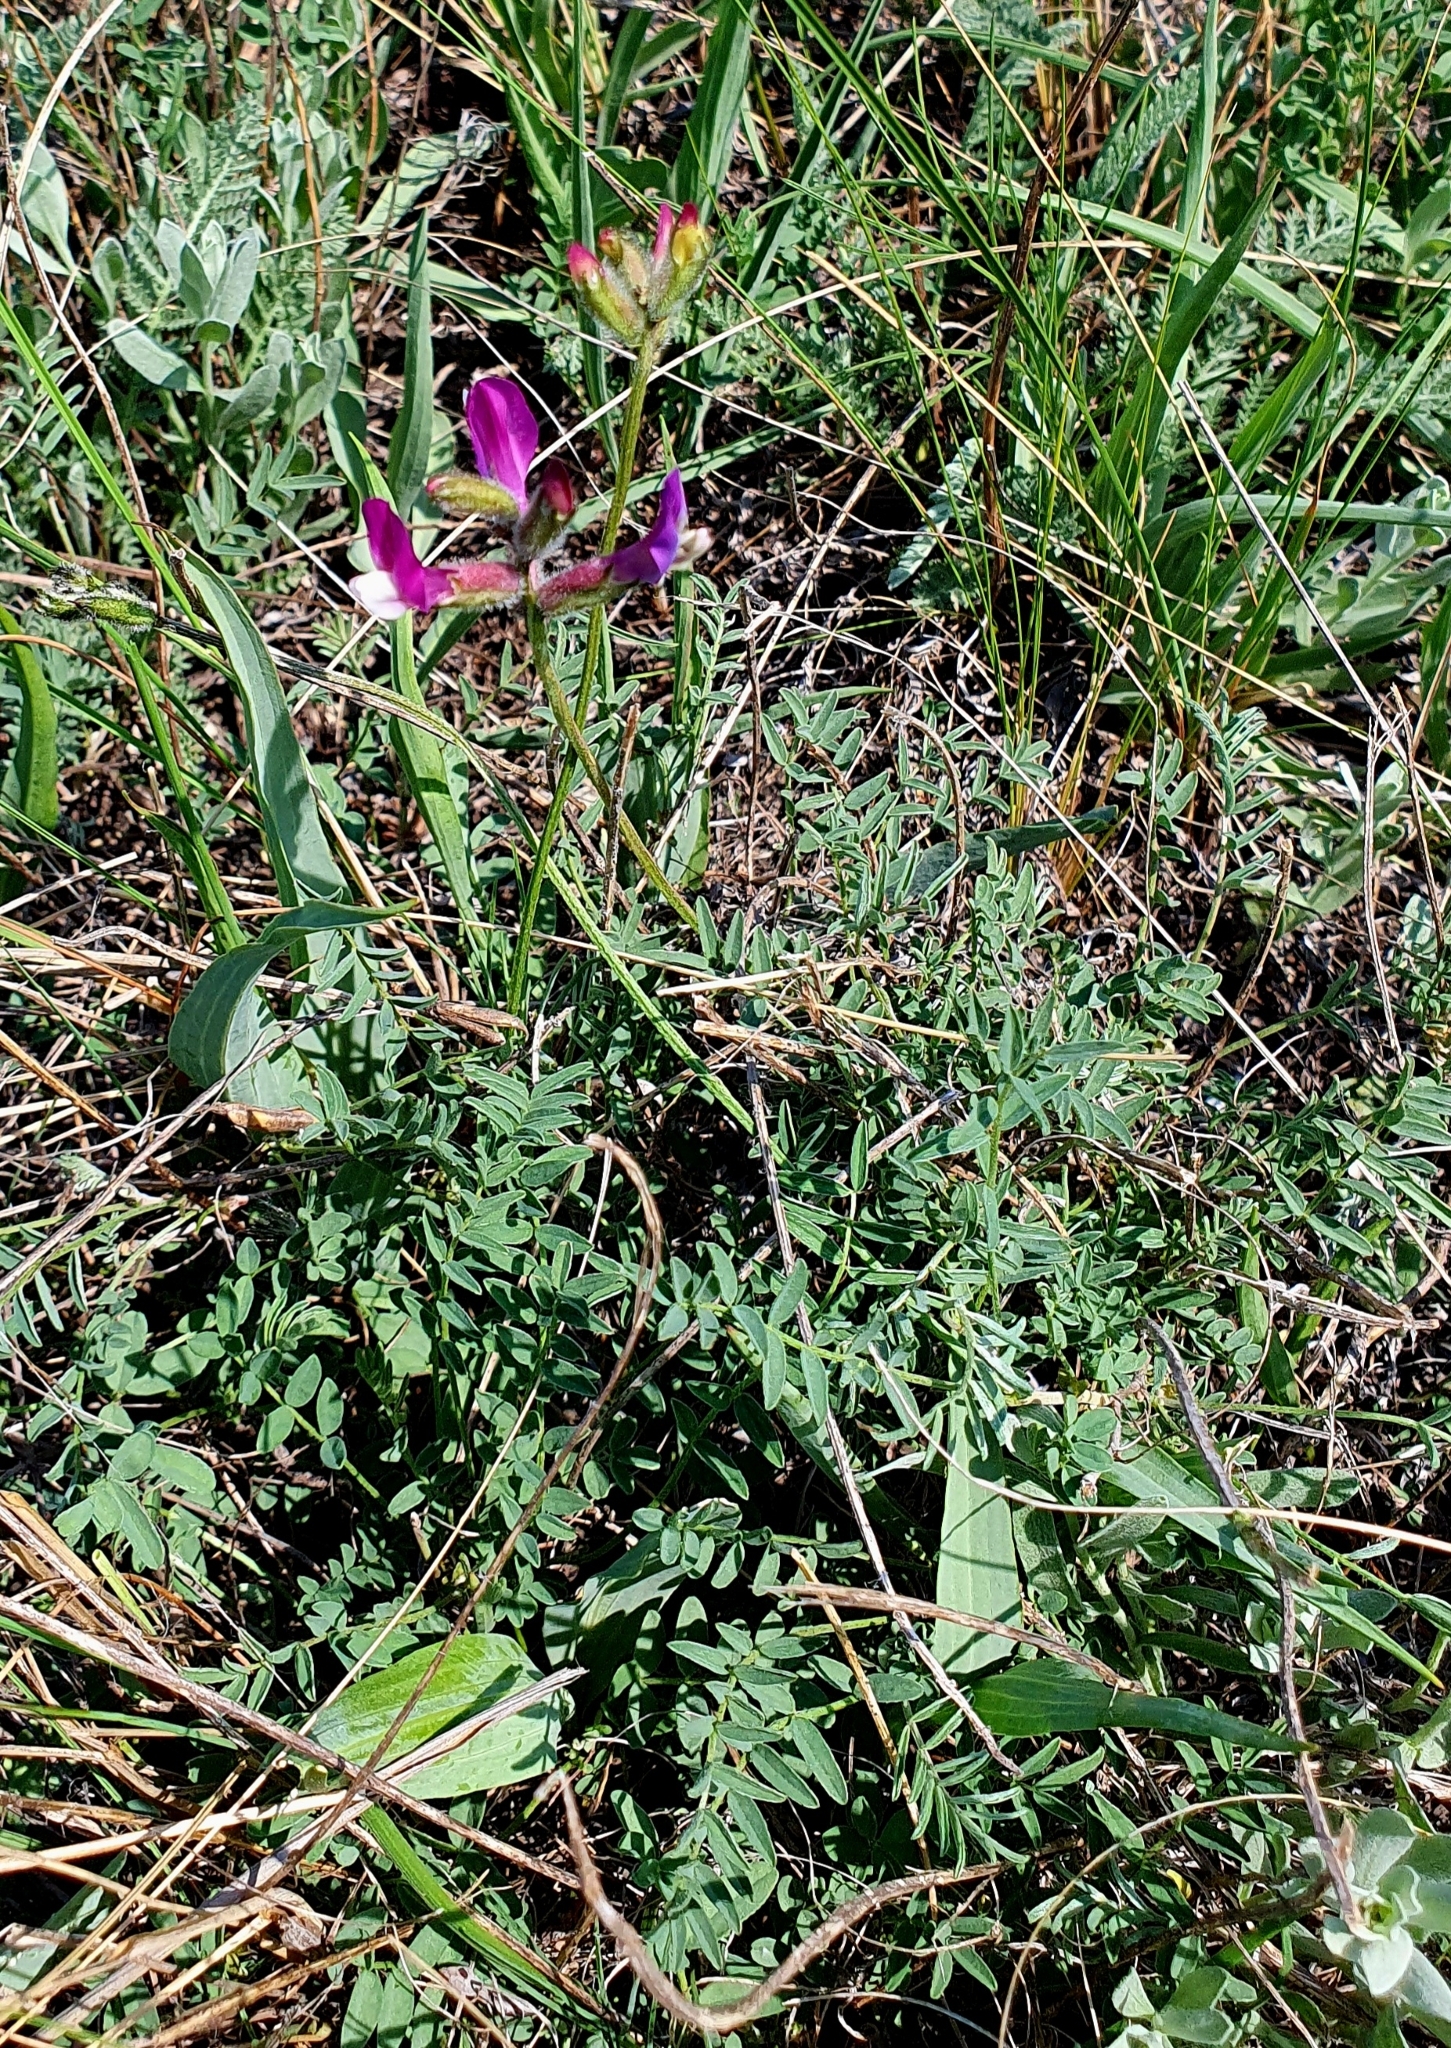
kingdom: Plantae
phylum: Tracheophyta
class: Magnoliopsida
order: Fabales
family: Fabaceae
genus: Astragalus
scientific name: Astragalus macropus
